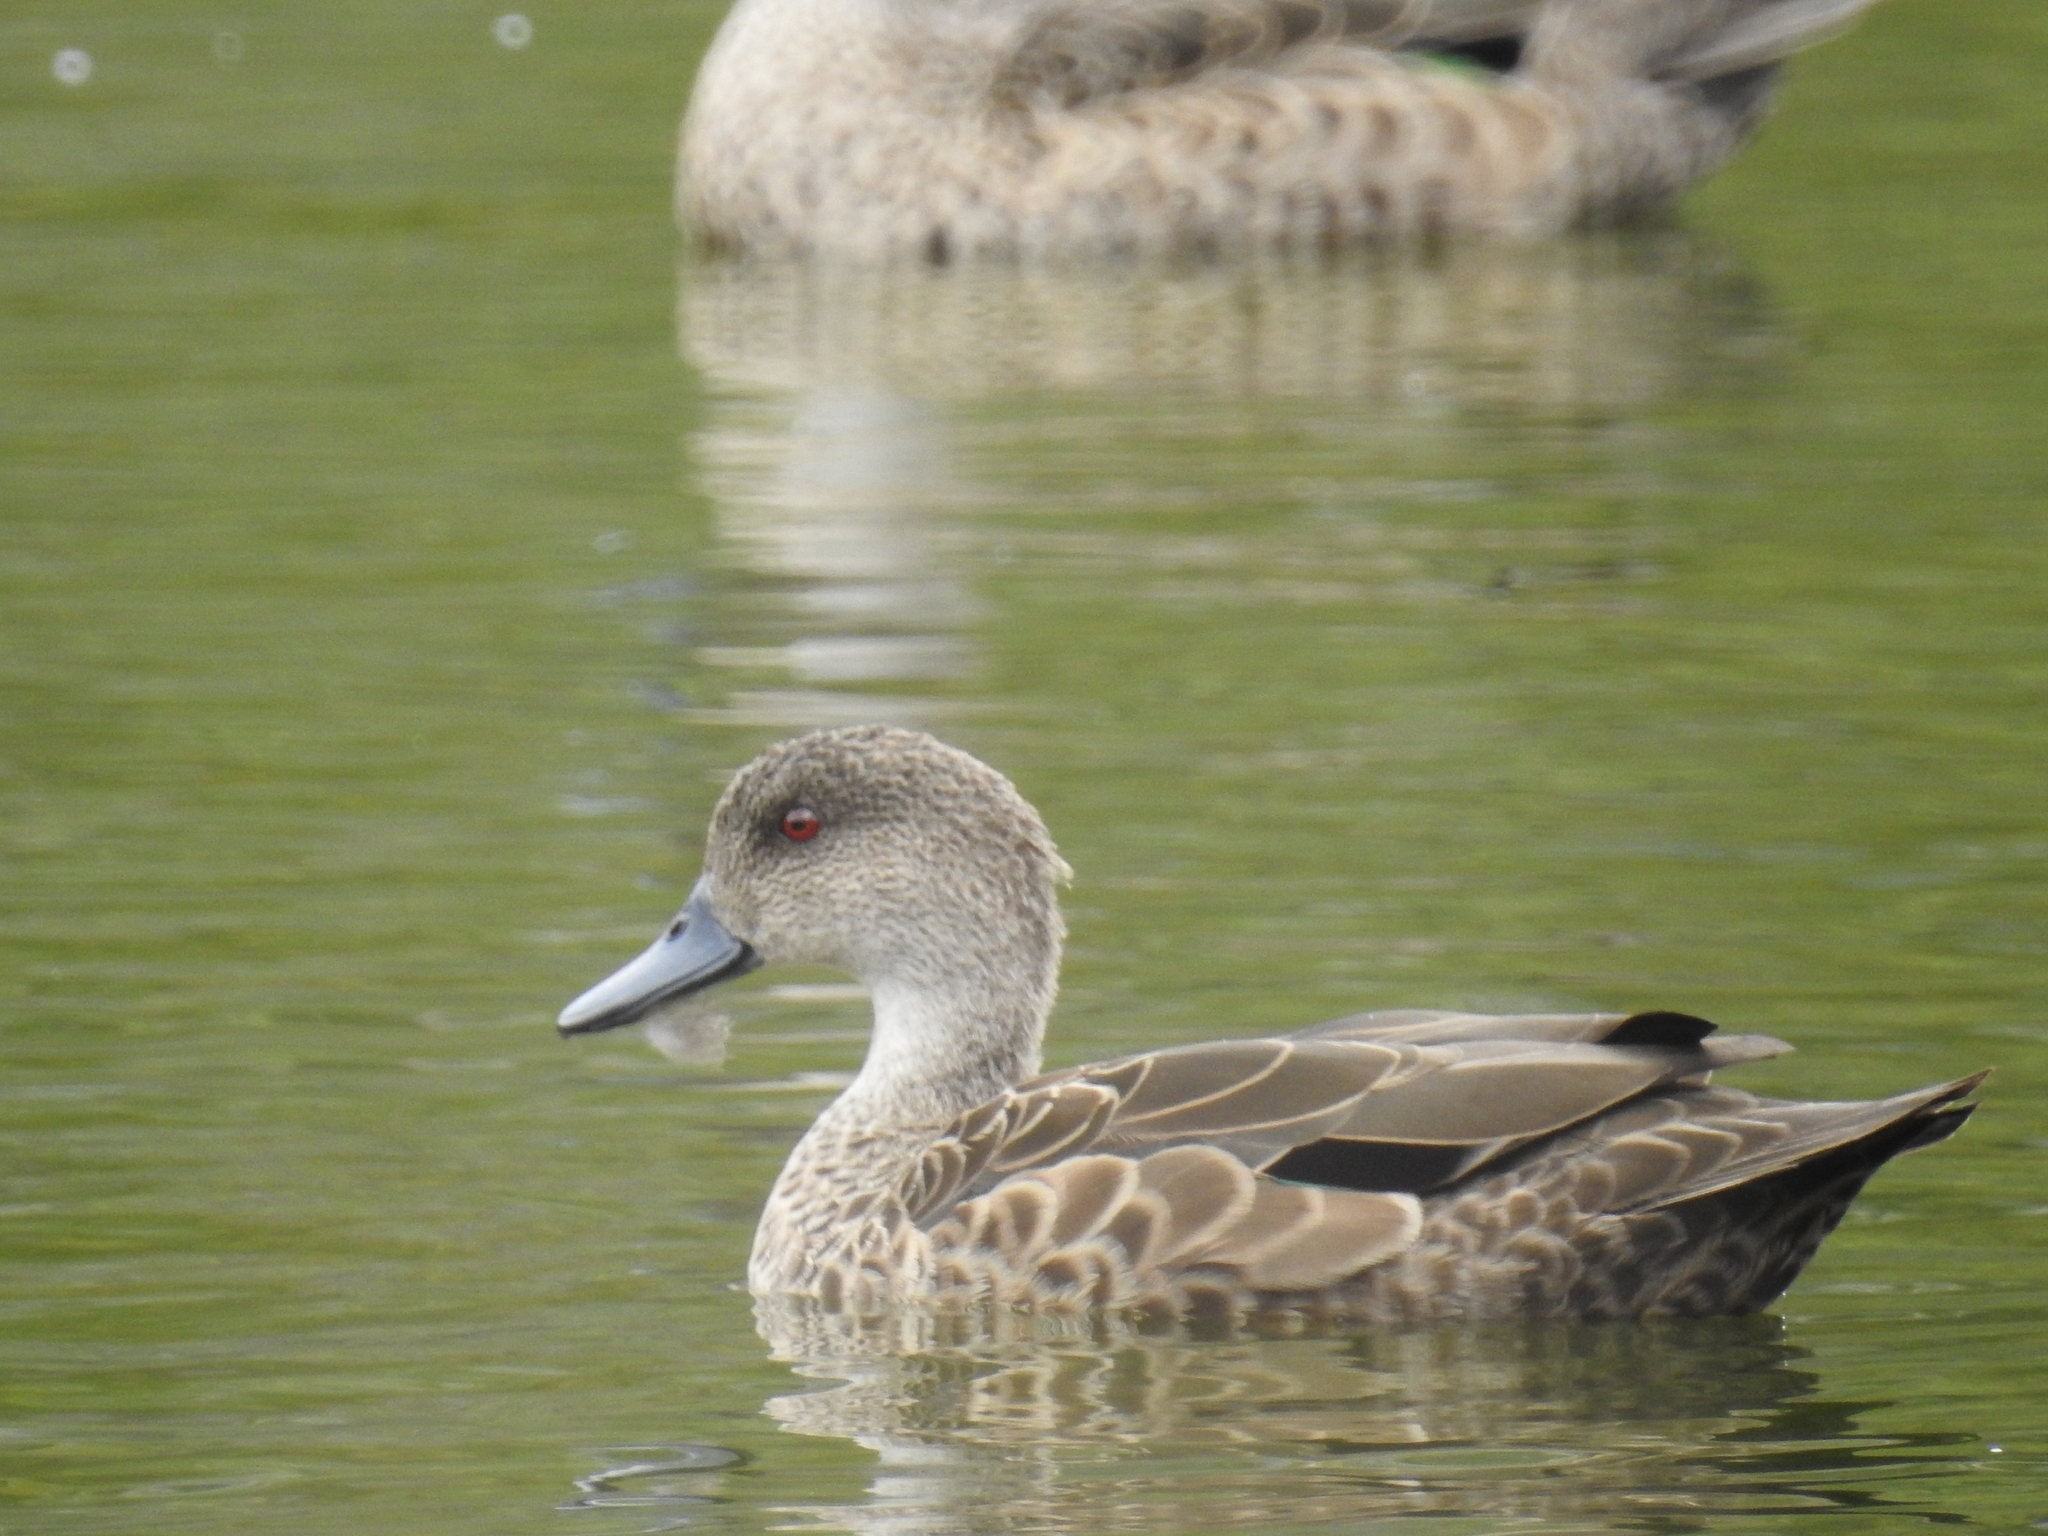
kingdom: Animalia
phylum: Chordata
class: Aves
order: Anseriformes
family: Anatidae
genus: Anas
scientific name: Anas gracilis
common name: Grey teal
